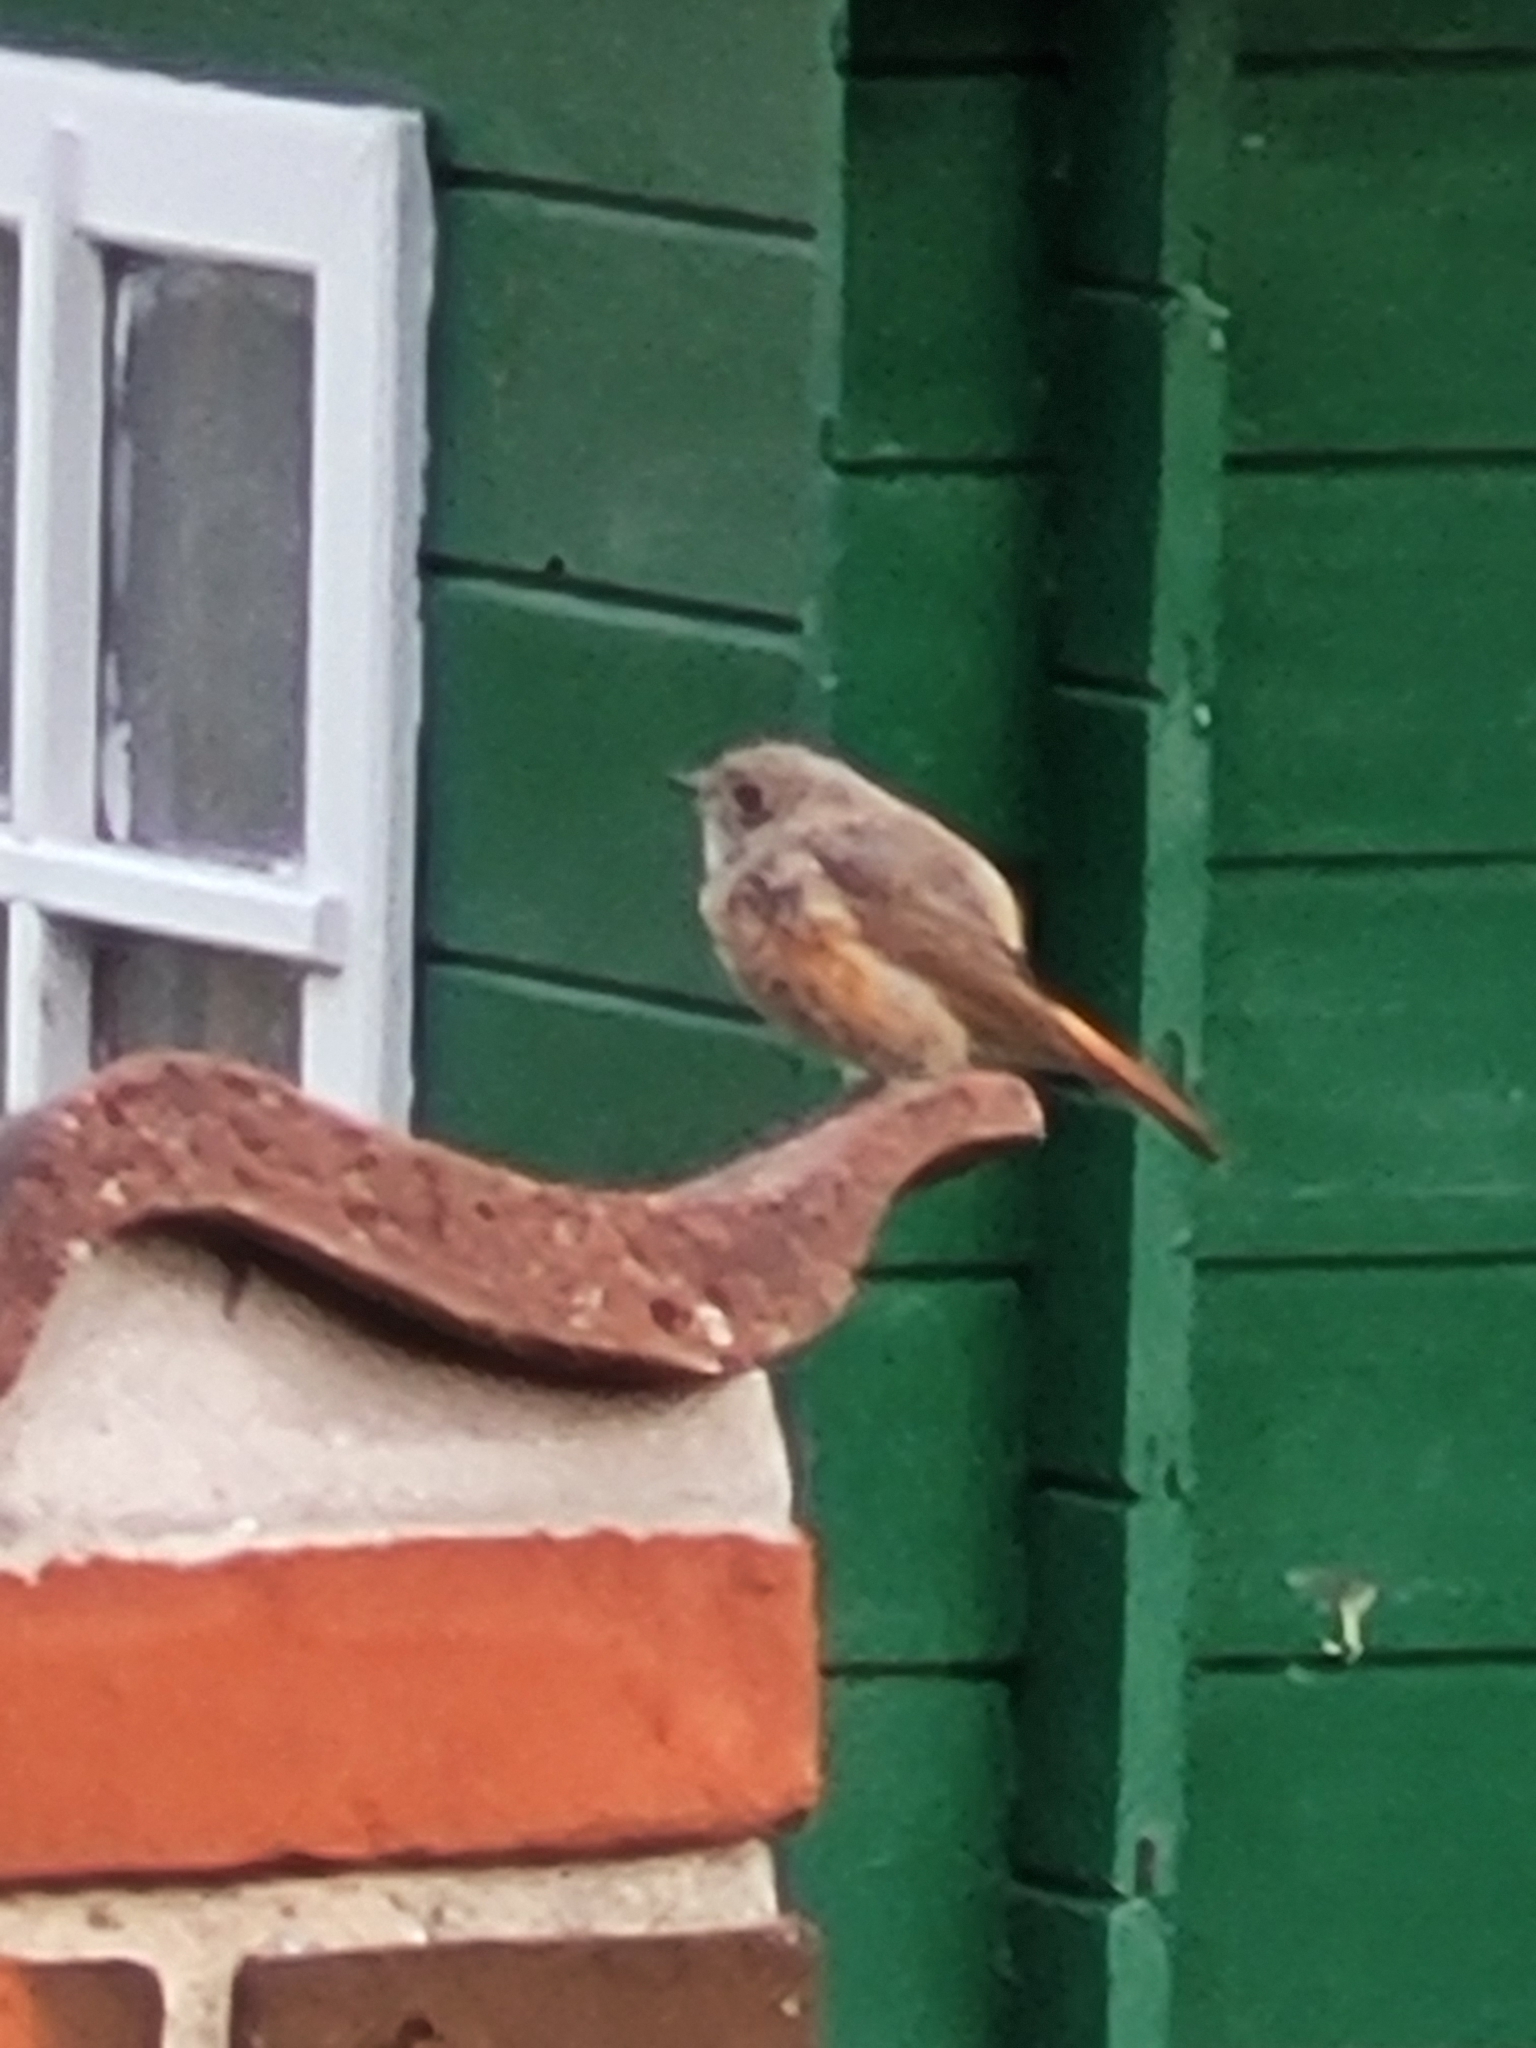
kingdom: Animalia
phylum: Chordata
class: Aves
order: Passeriformes
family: Muscicapidae
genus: Phoenicurus
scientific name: Phoenicurus phoenicurus
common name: Common redstart
